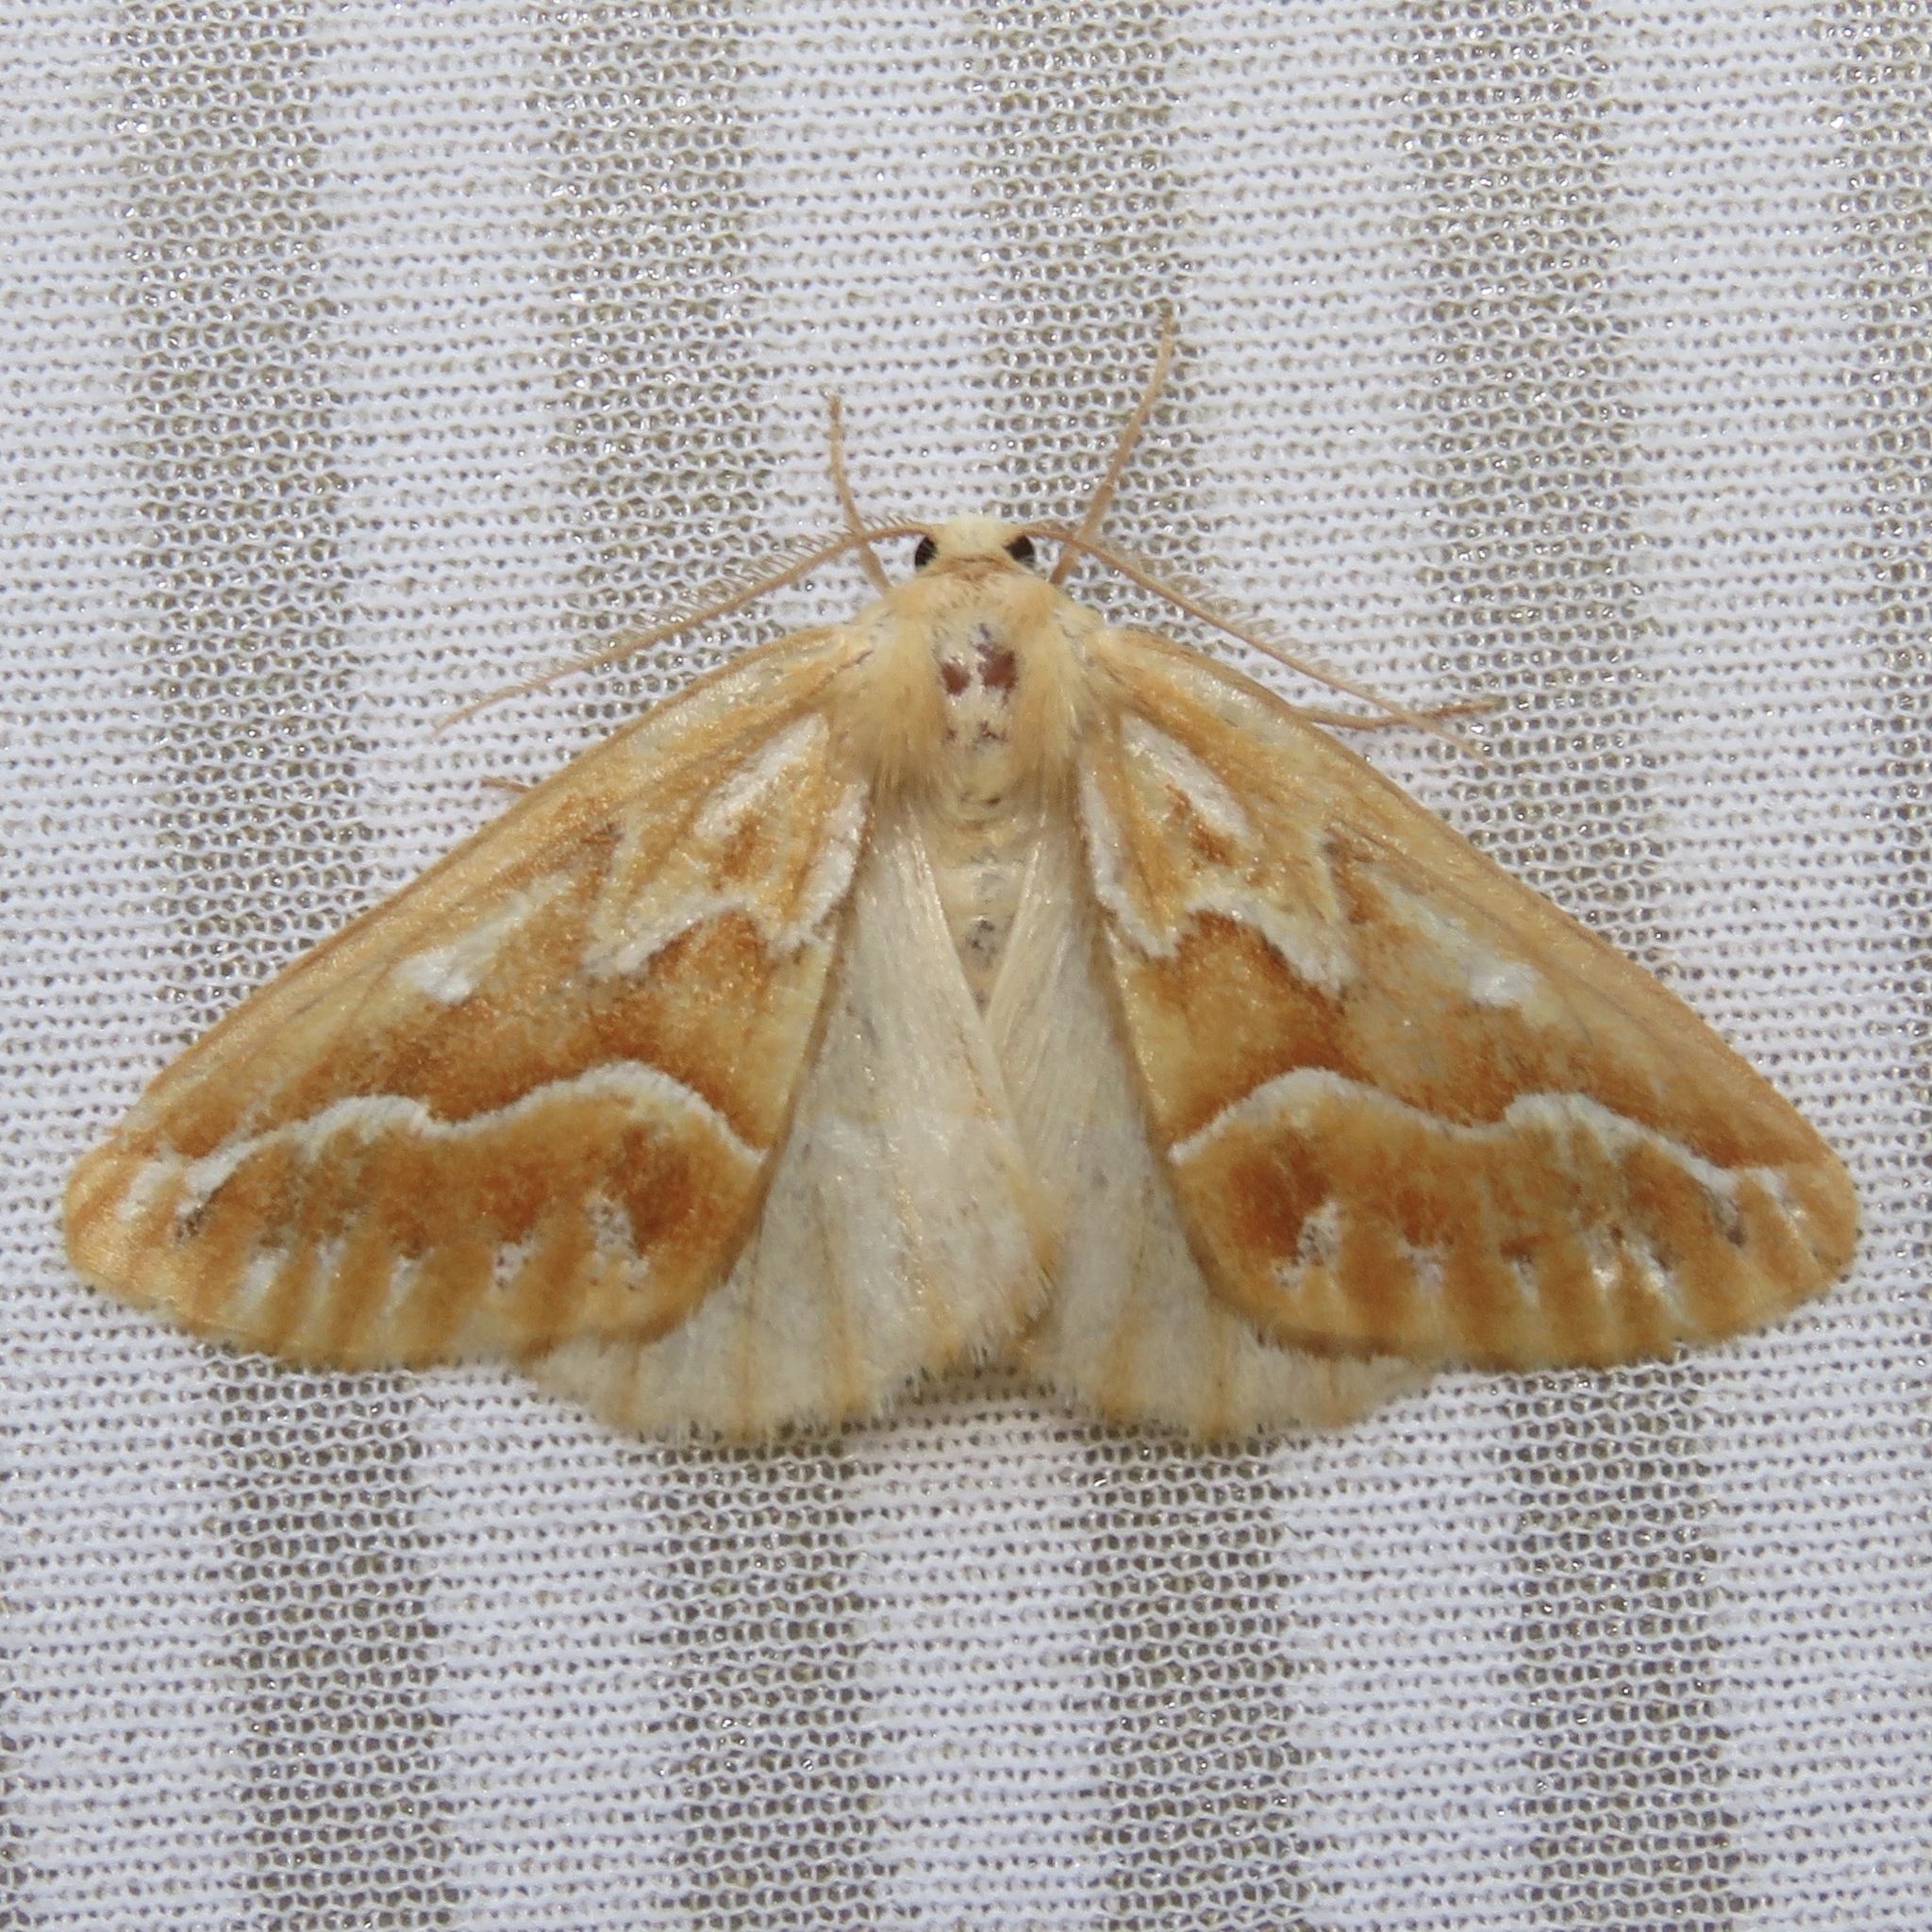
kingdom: Animalia
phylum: Arthropoda
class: Insecta
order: Lepidoptera
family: Geometridae
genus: Caripeta
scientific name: Caripeta piniata
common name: Northern pine looper moth
